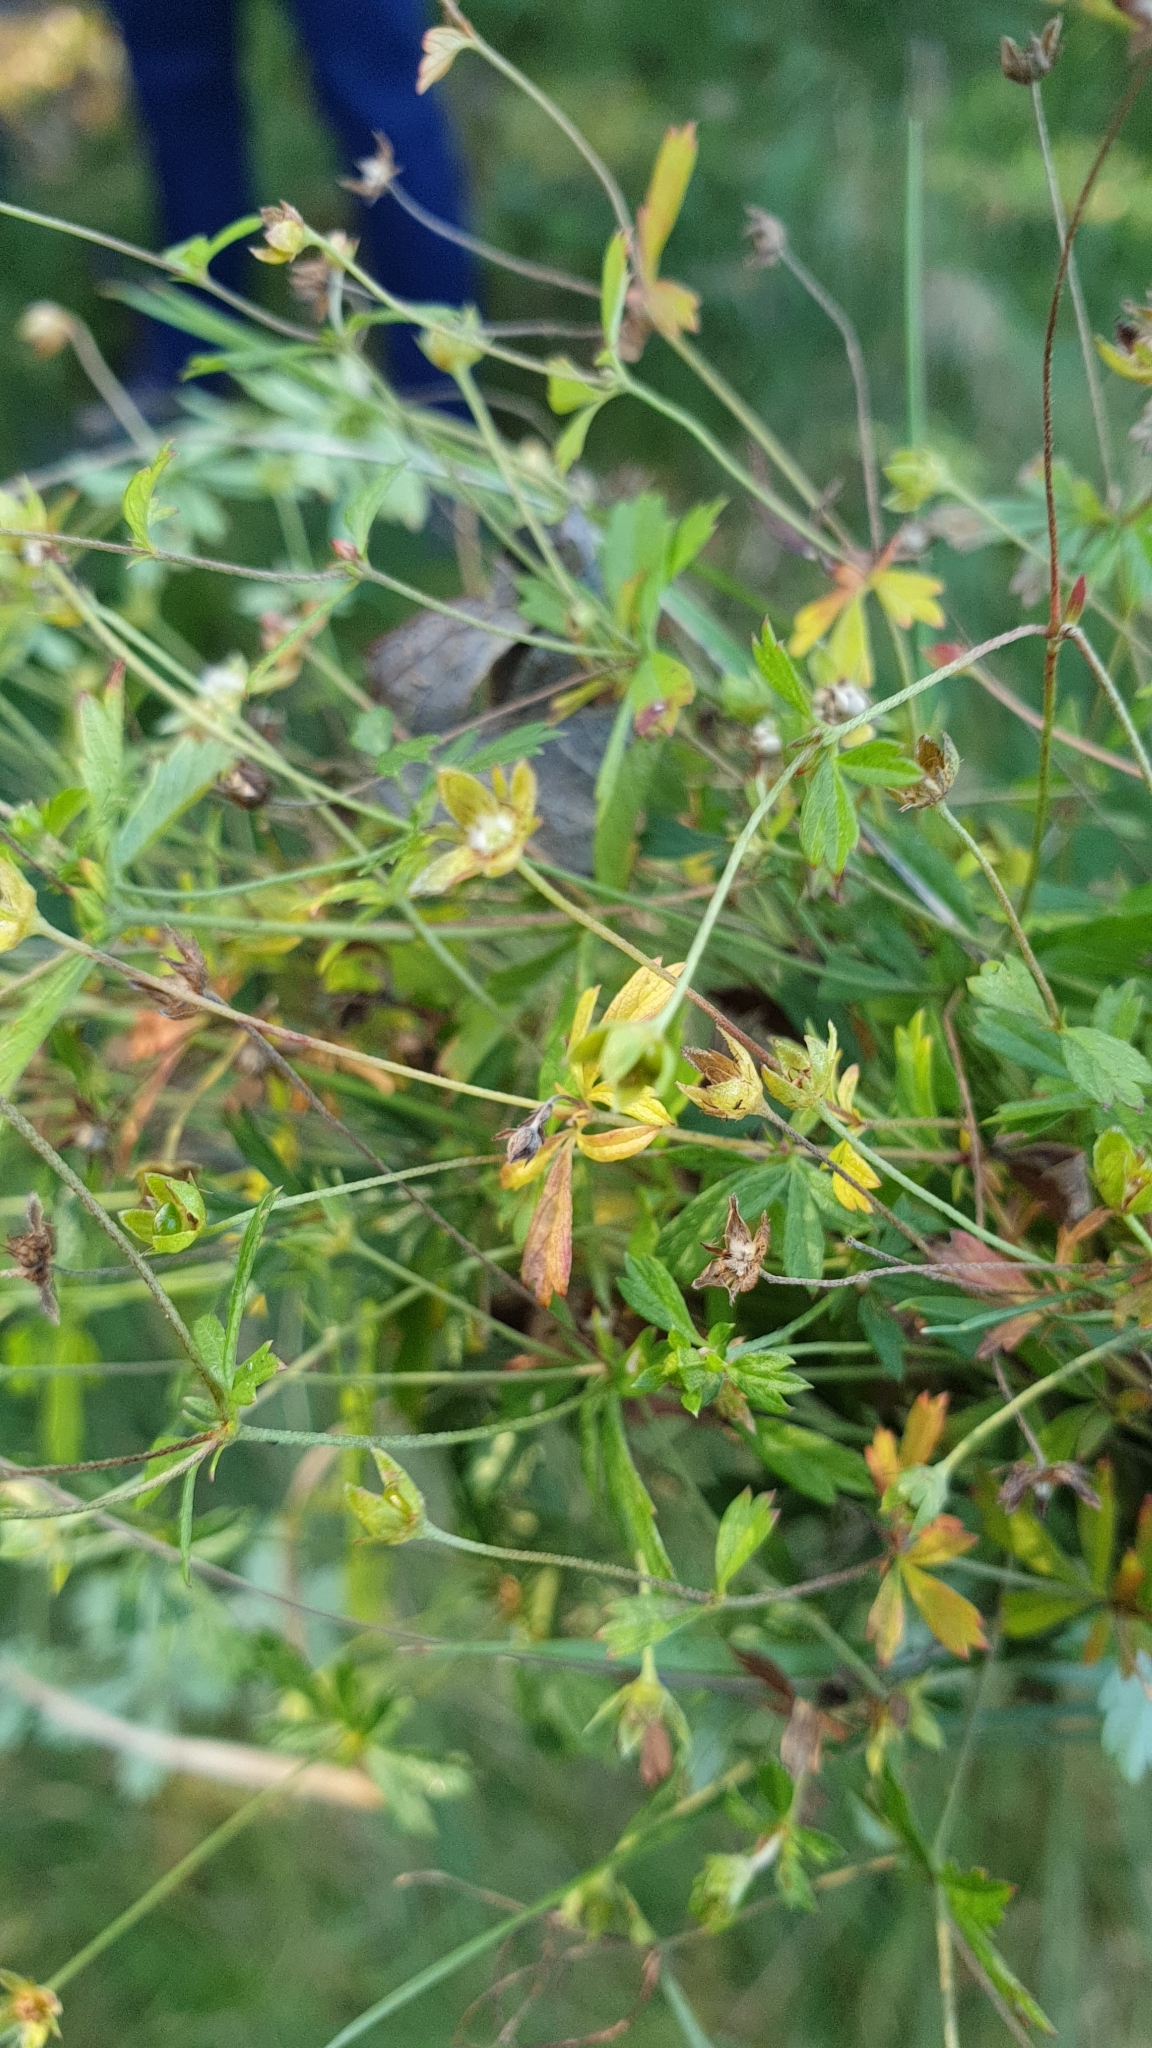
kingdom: Plantae
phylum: Tracheophyta
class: Magnoliopsida
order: Rosales
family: Rosaceae
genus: Potentilla
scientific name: Potentilla erecta
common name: Tormentil
